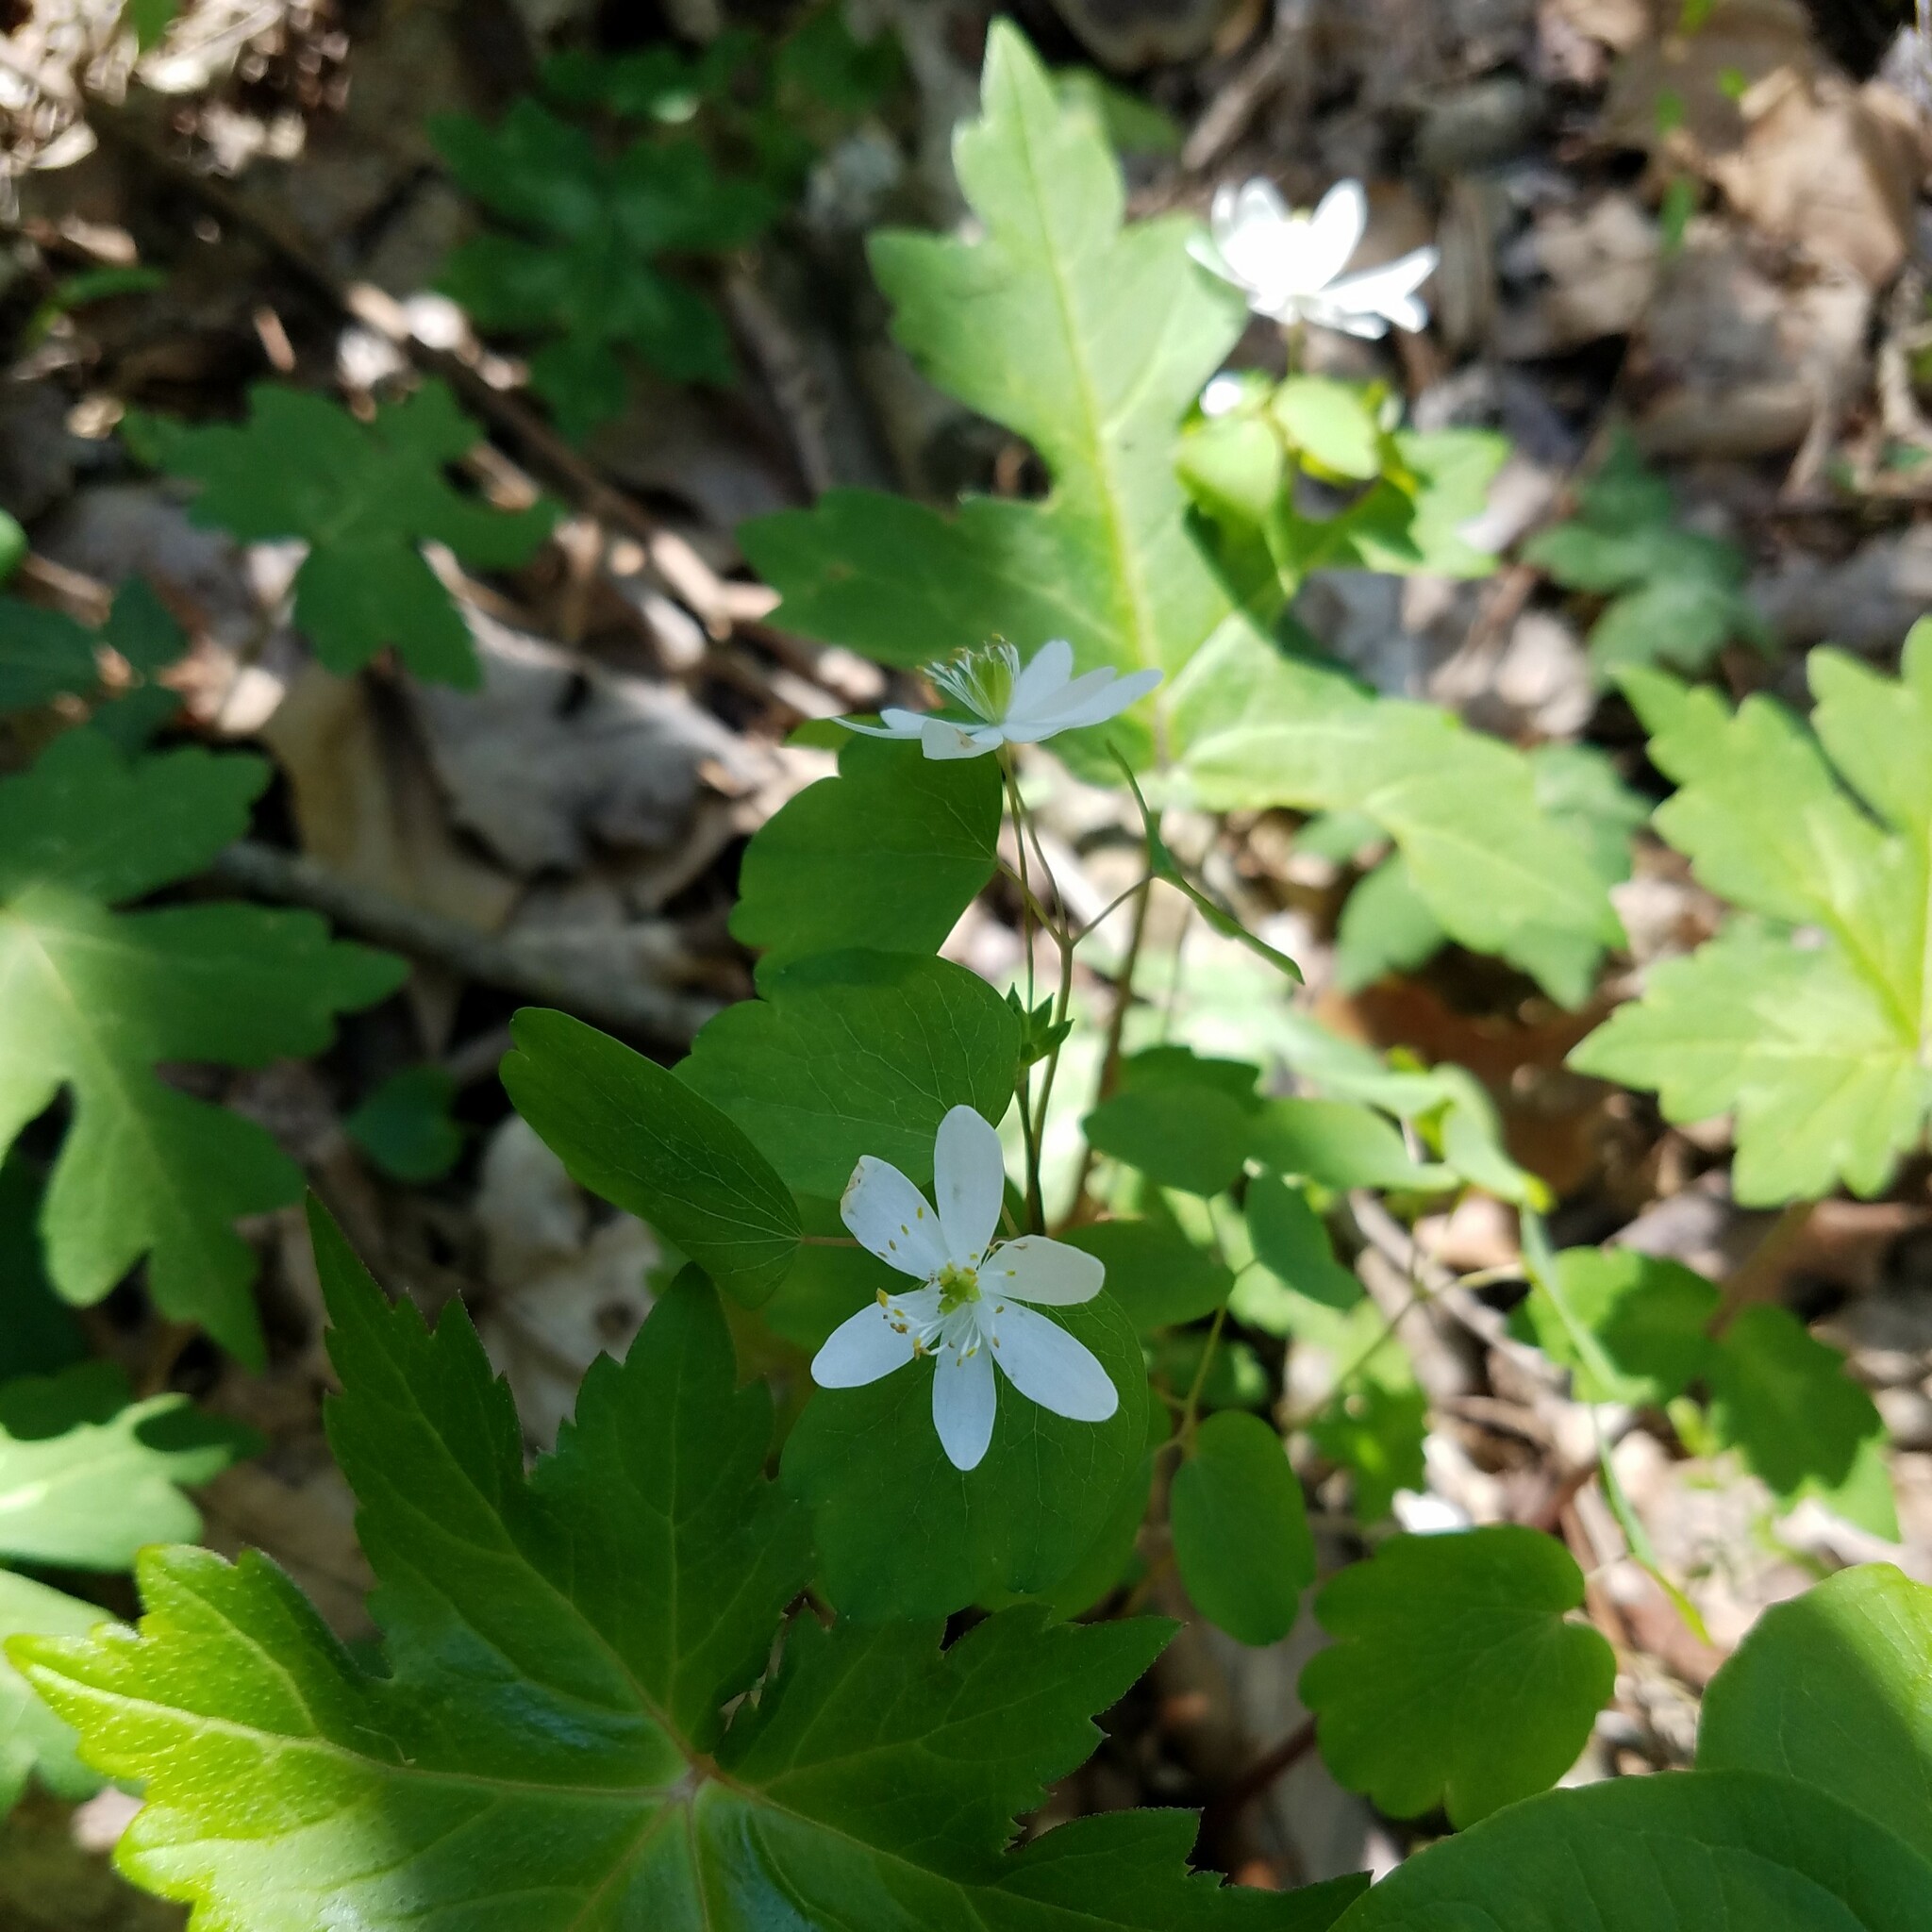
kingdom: Plantae
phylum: Tracheophyta
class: Magnoliopsida
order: Ranunculales
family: Ranunculaceae
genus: Thalictrum
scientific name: Thalictrum thalictroides
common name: Rue-anemone
